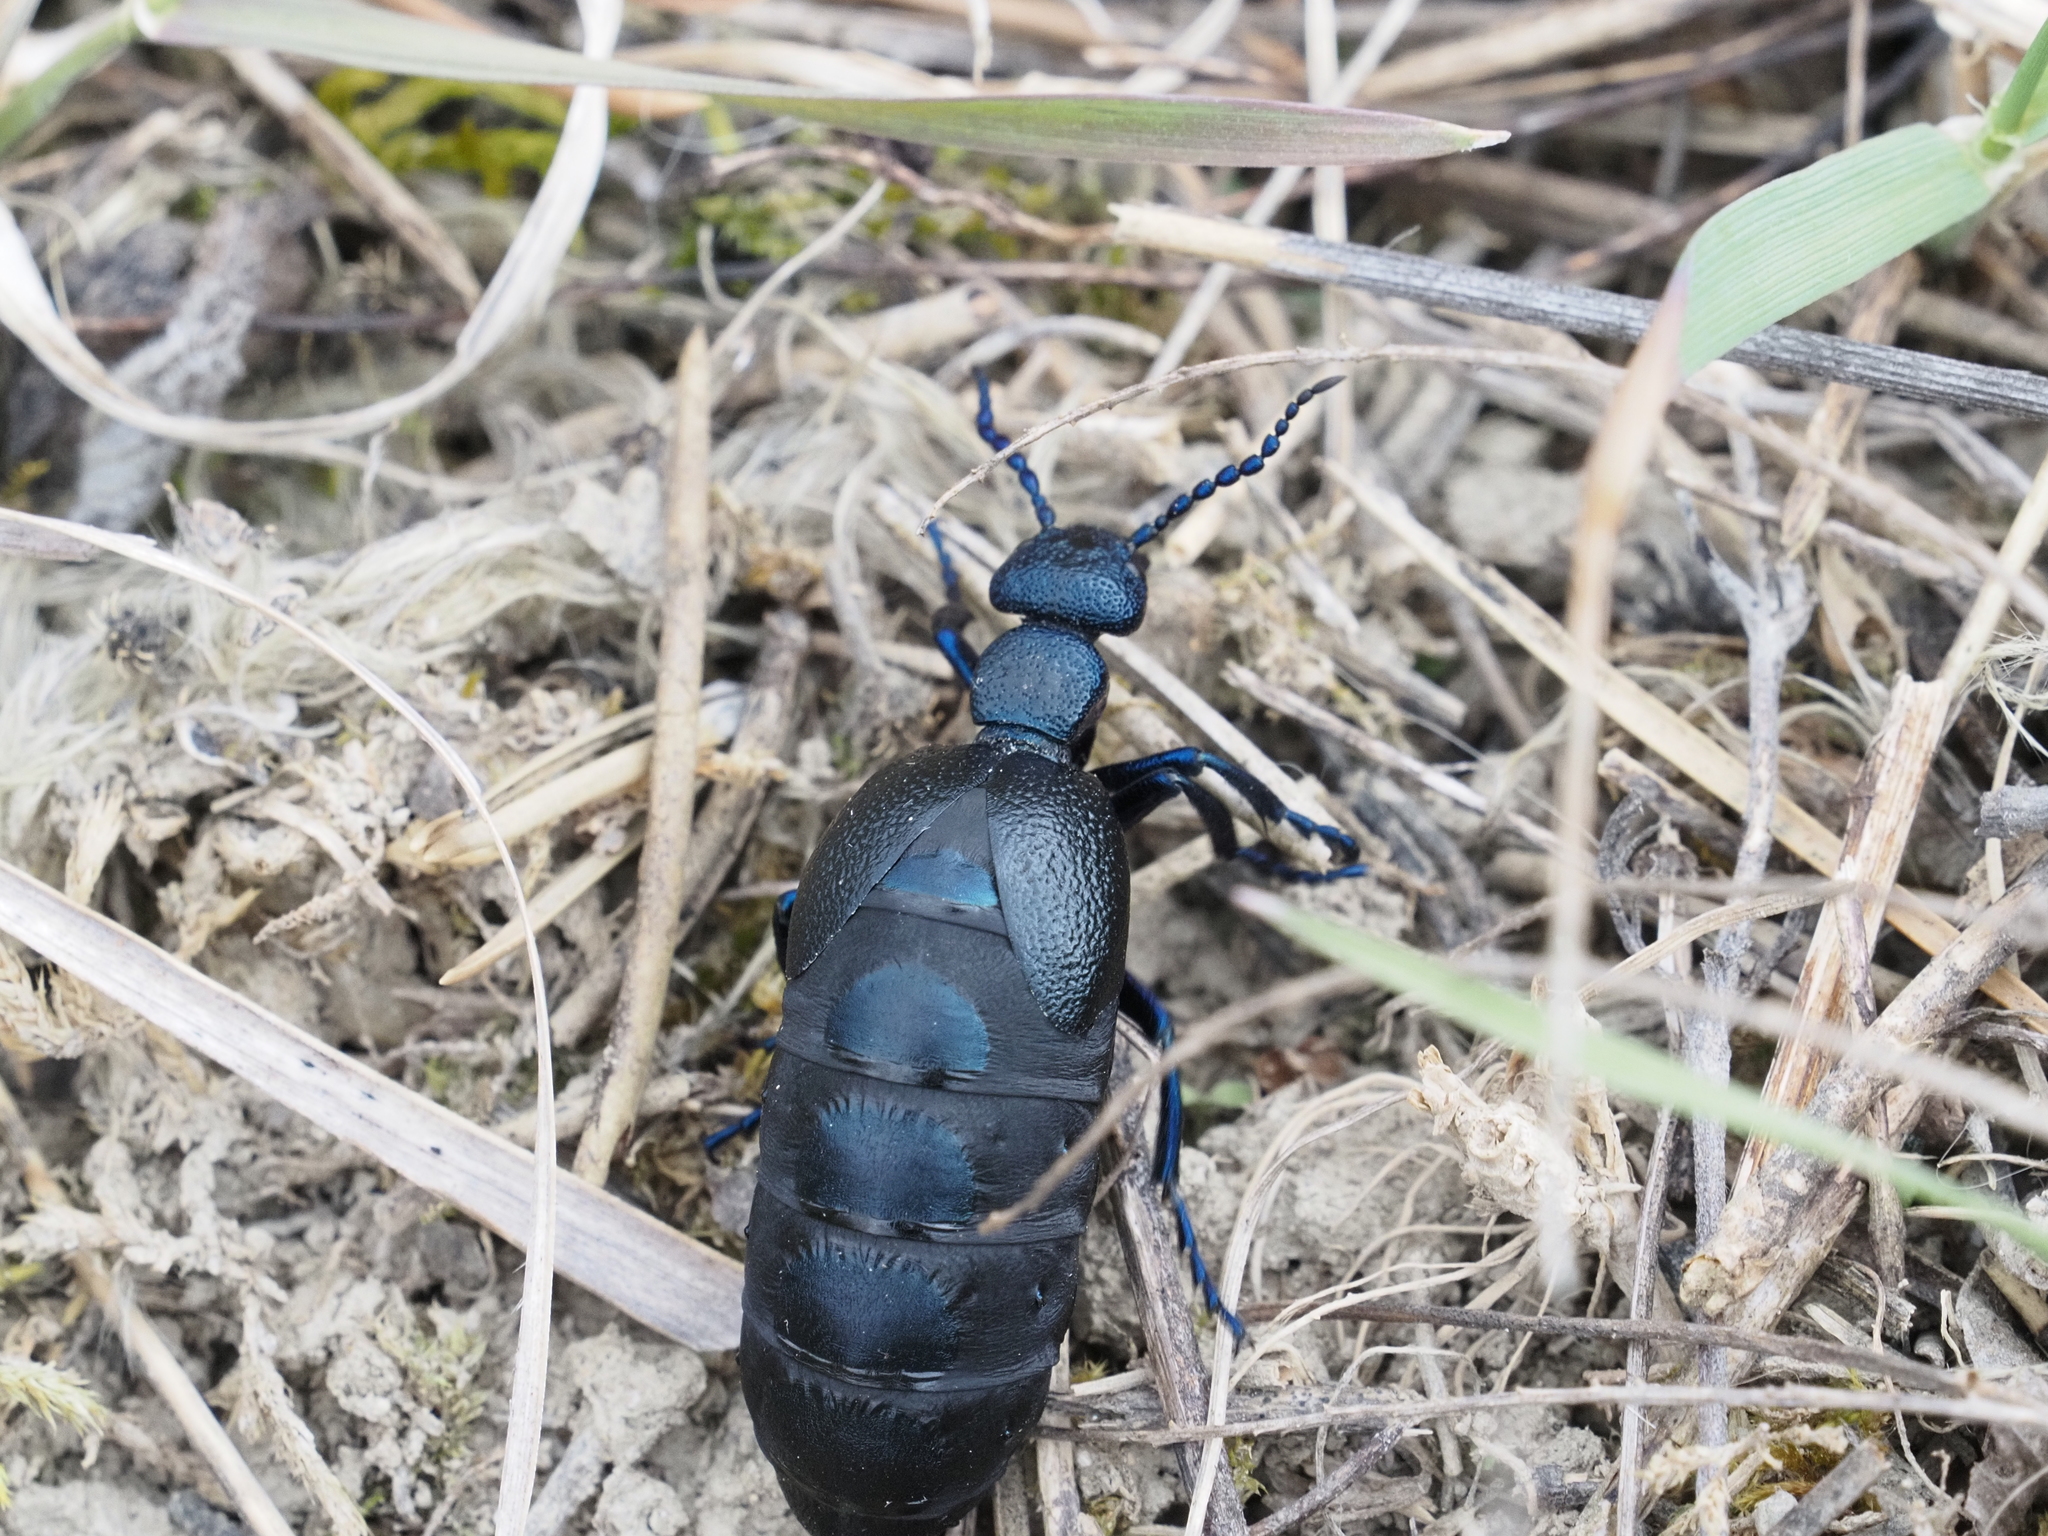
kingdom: Animalia
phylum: Arthropoda
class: Insecta
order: Coleoptera
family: Meloidae
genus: Meloe
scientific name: Meloe proscarabaeus
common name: Black oil-beetle
